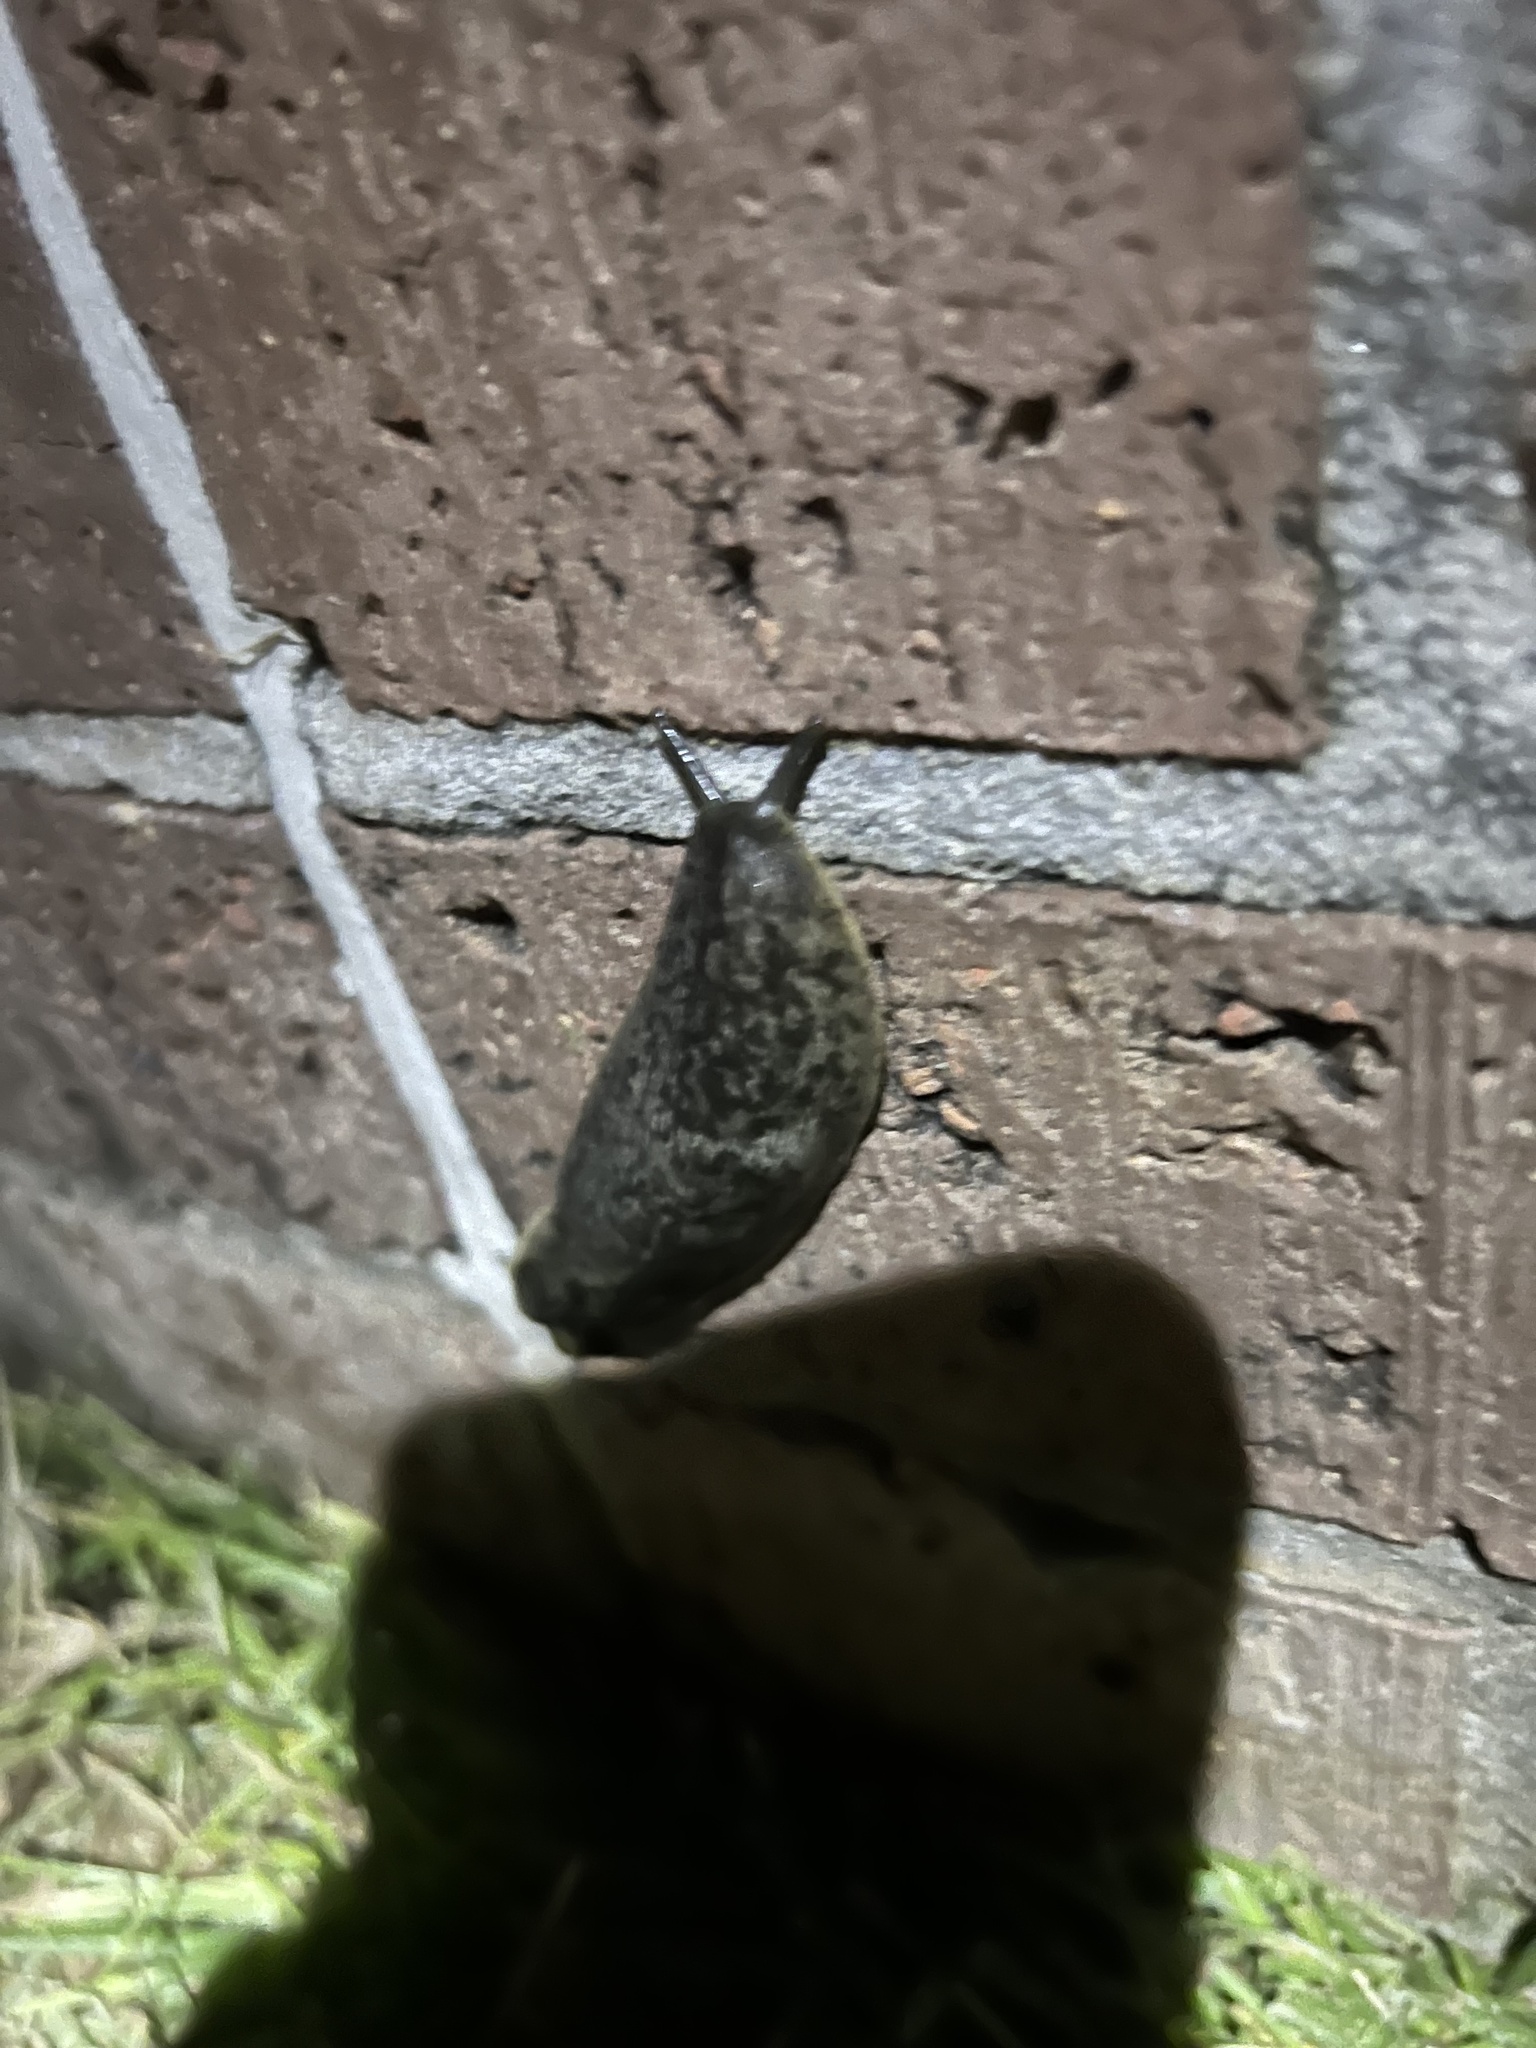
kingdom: Animalia
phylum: Mollusca
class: Gastropoda
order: Systellommatophora
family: Veronicellidae
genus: Leidyula
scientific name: Leidyula floridana
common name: Florida leatherleaf
